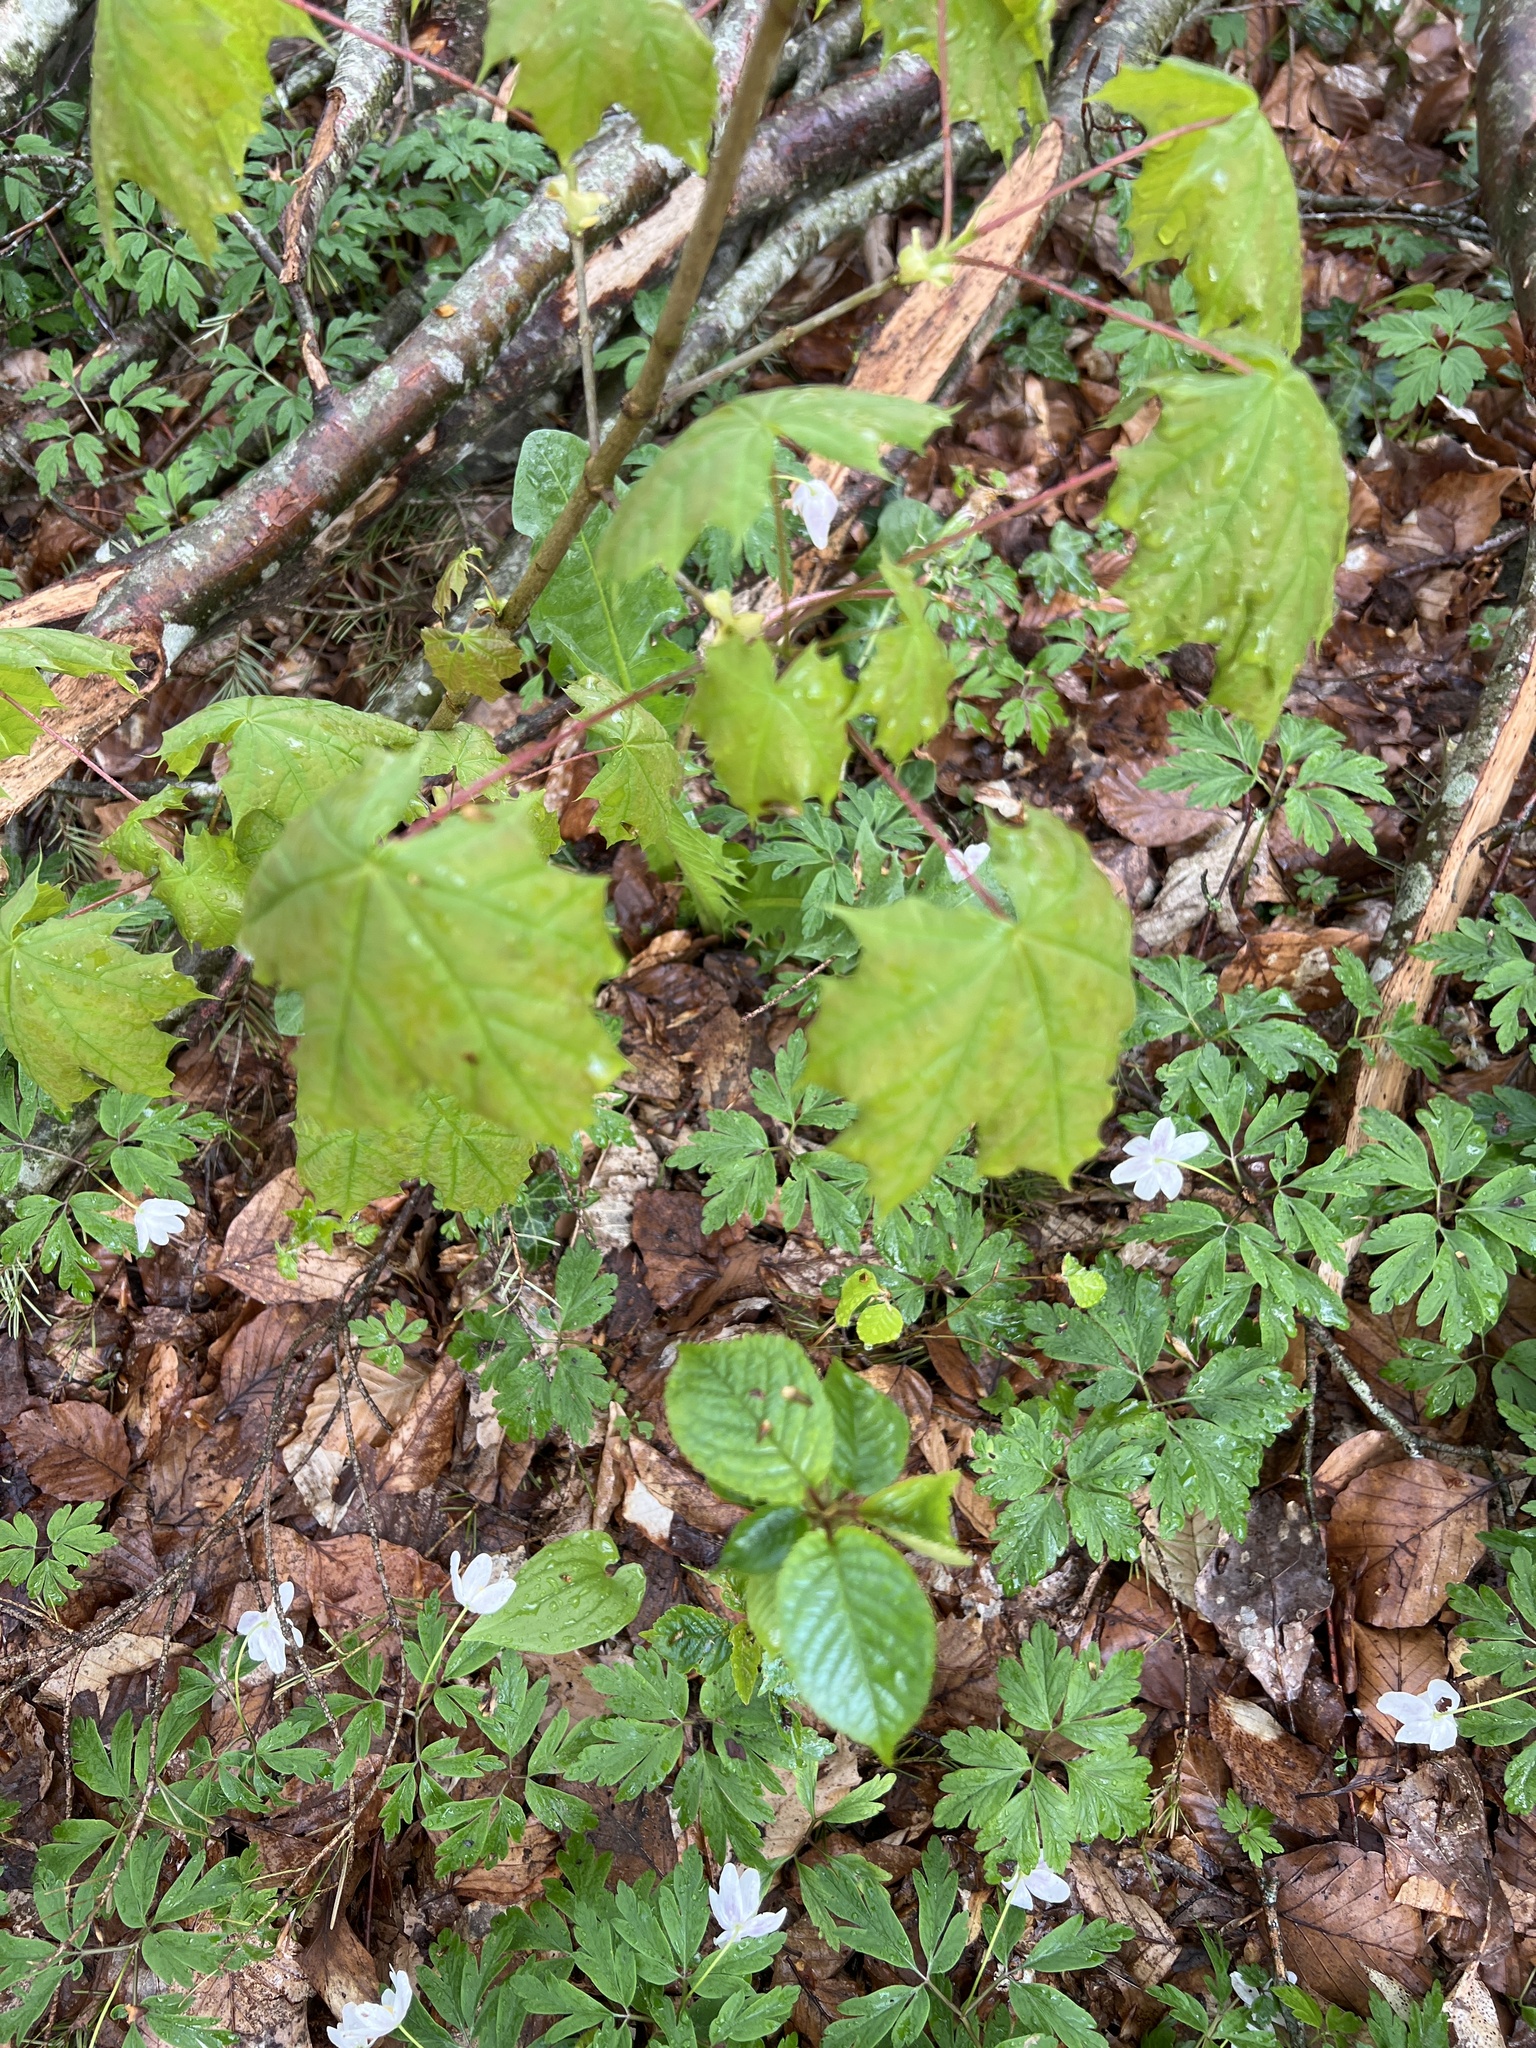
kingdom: Plantae
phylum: Tracheophyta
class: Magnoliopsida
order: Sapindales
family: Sapindaceae
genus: Acer
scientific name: Acer platanoides
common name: Norway maple
